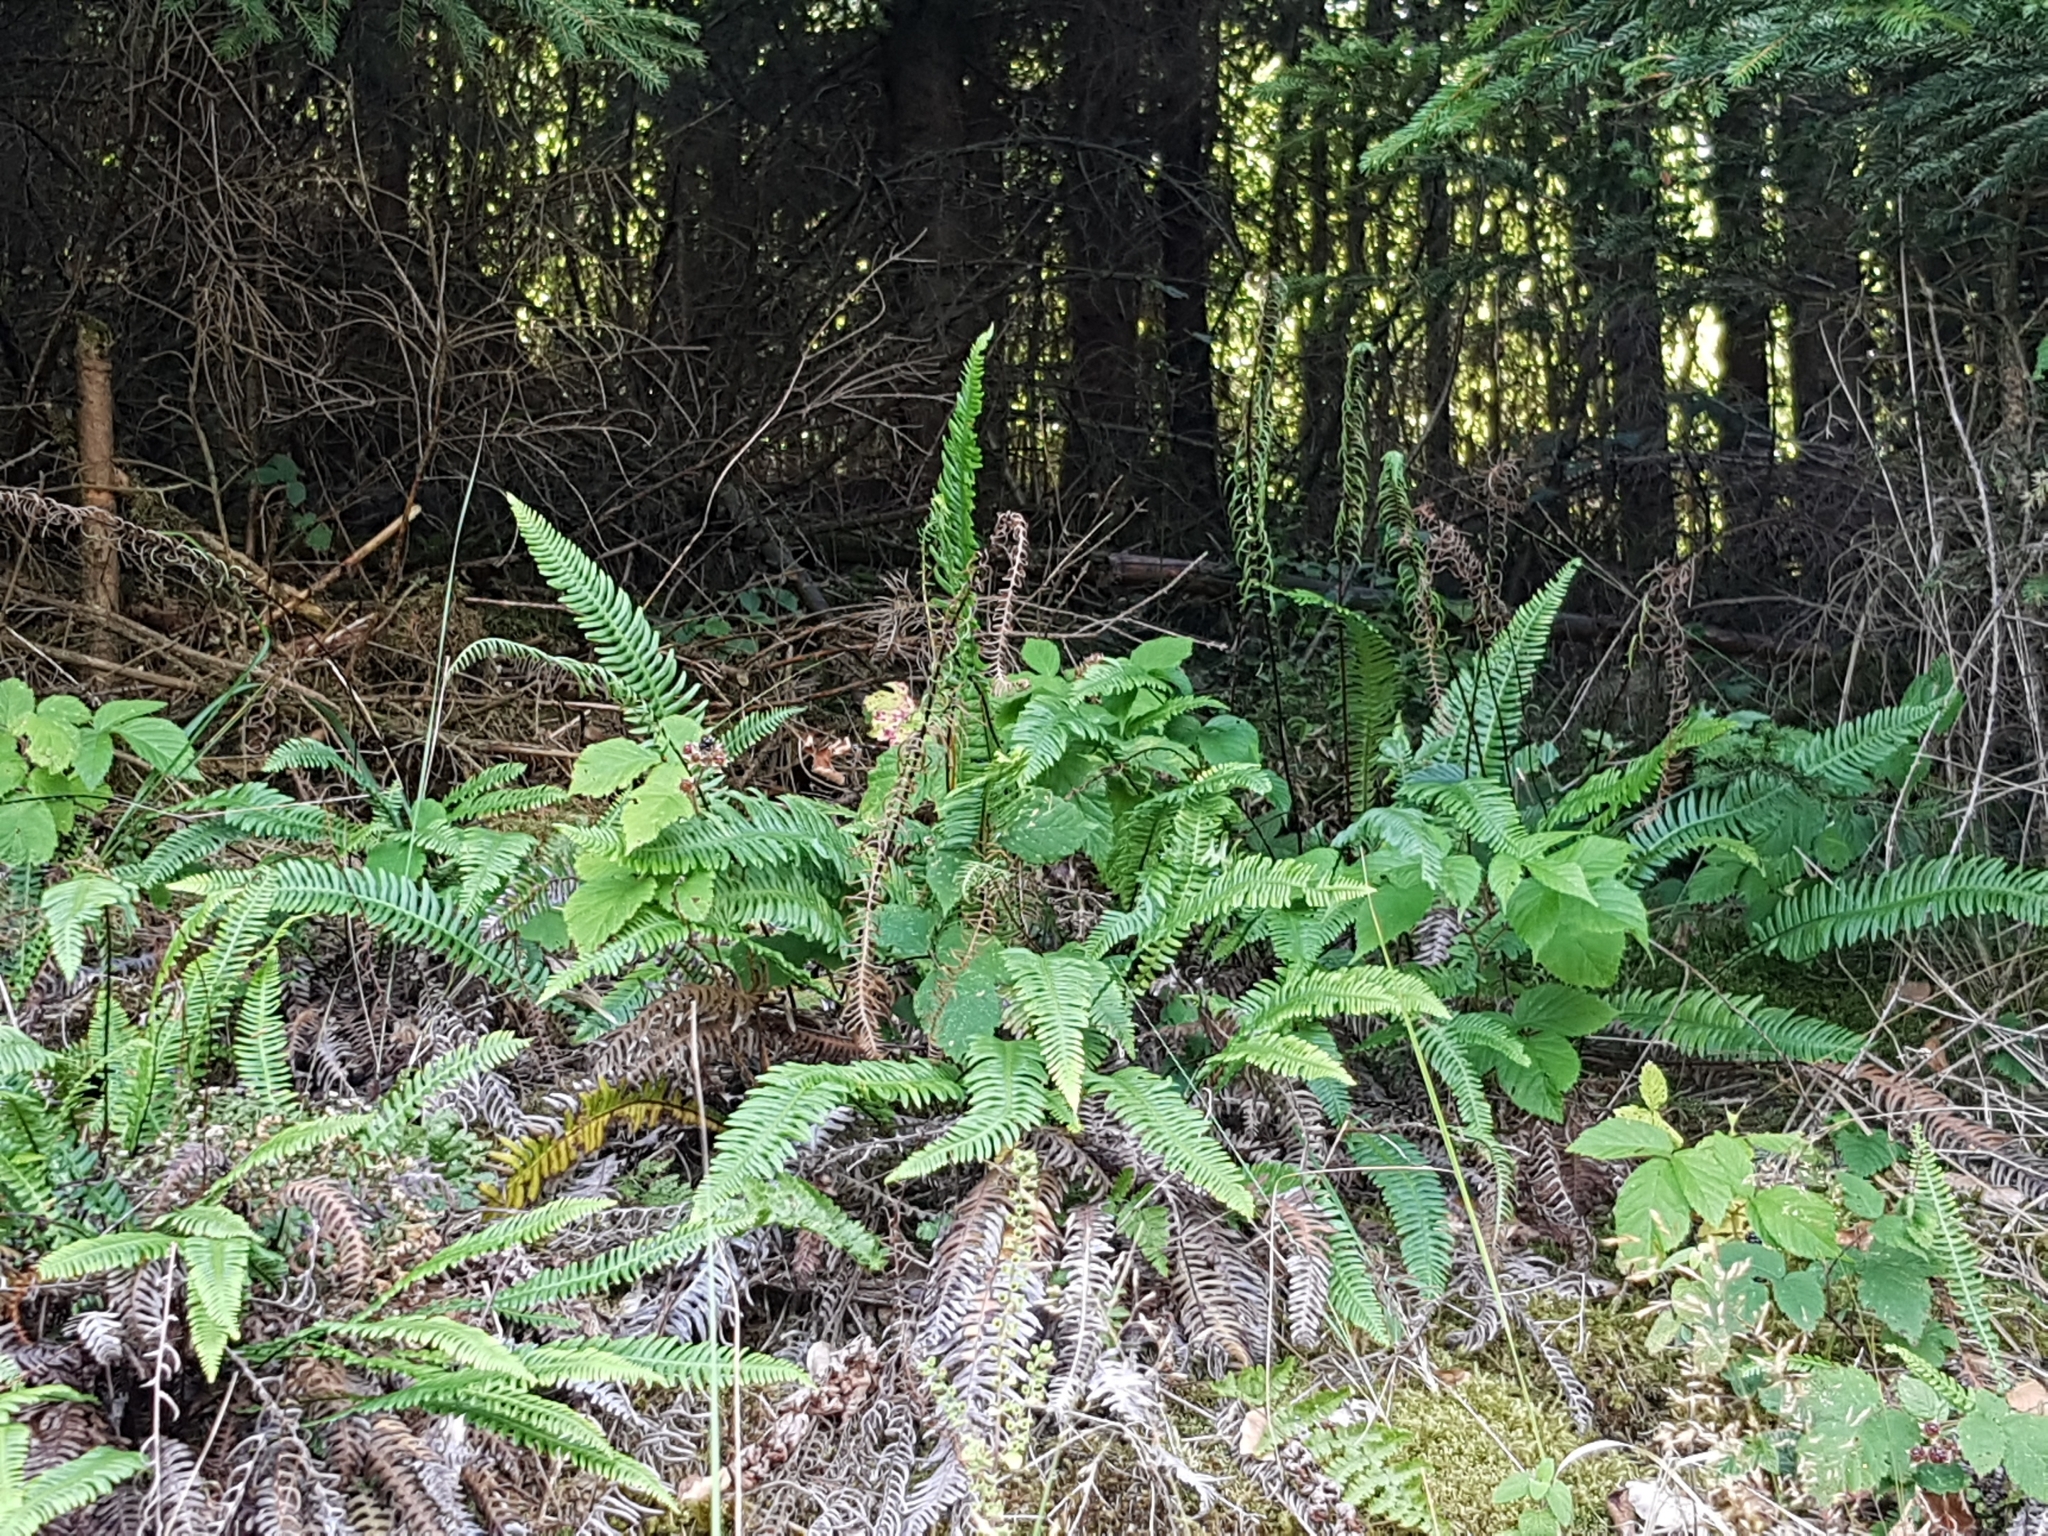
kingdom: Plantae
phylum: Tracheophyta
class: Polypodiopsida
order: Polypodiales
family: Blechnaceae
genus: Struthiopteris
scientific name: Struthiopteris spicant
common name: Deer fern
